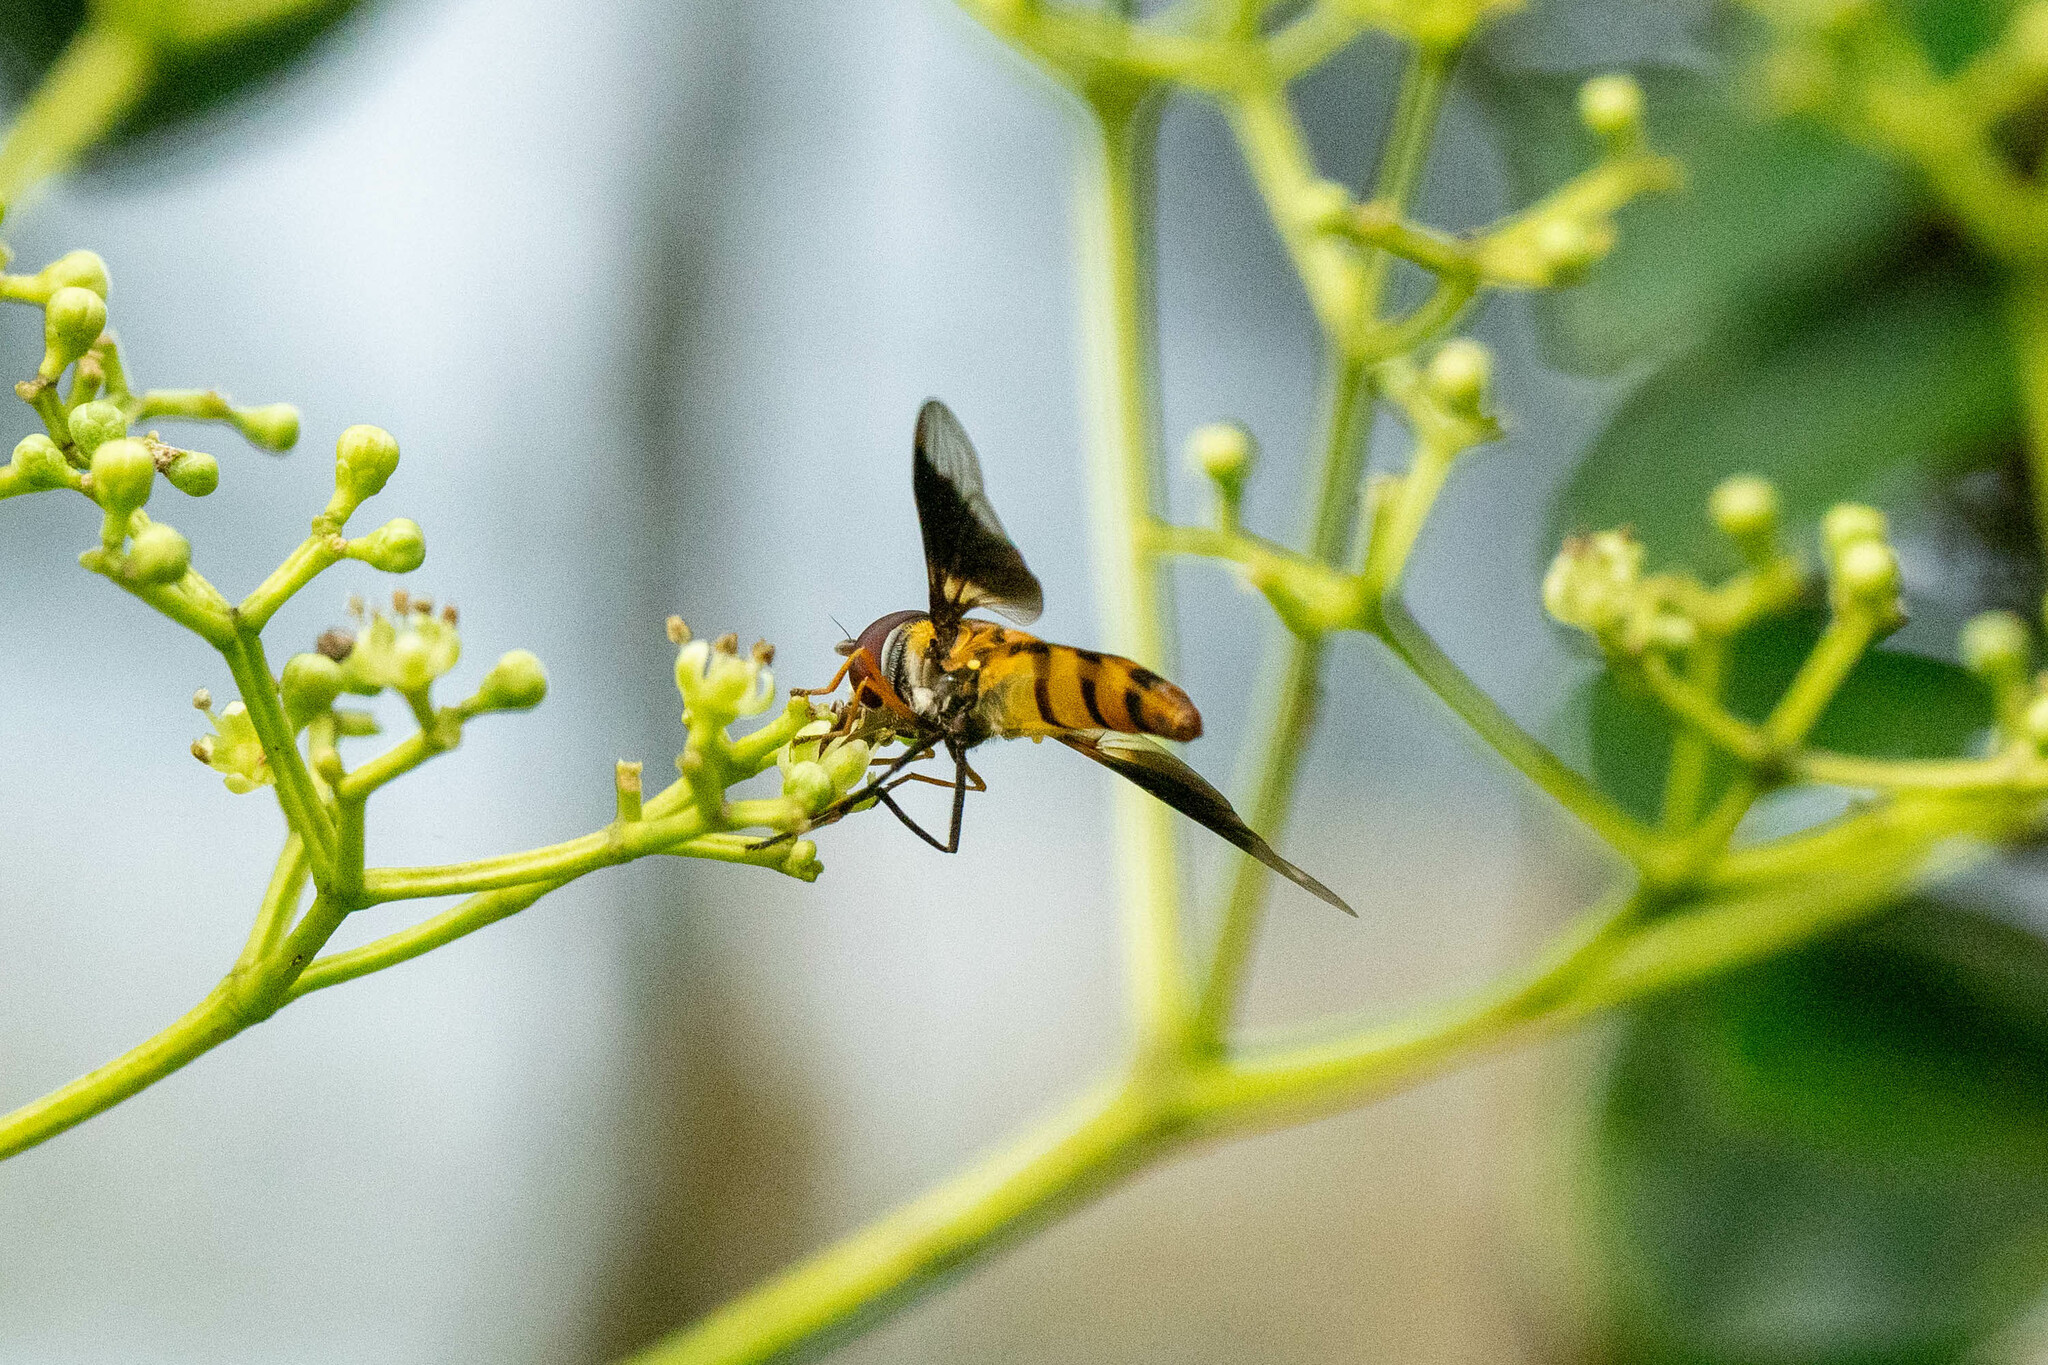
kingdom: Animalia
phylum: Arthropoda
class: Insecta
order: Diptera
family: Syrphidae
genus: Dideopsis
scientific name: Dideopsis aegrota
